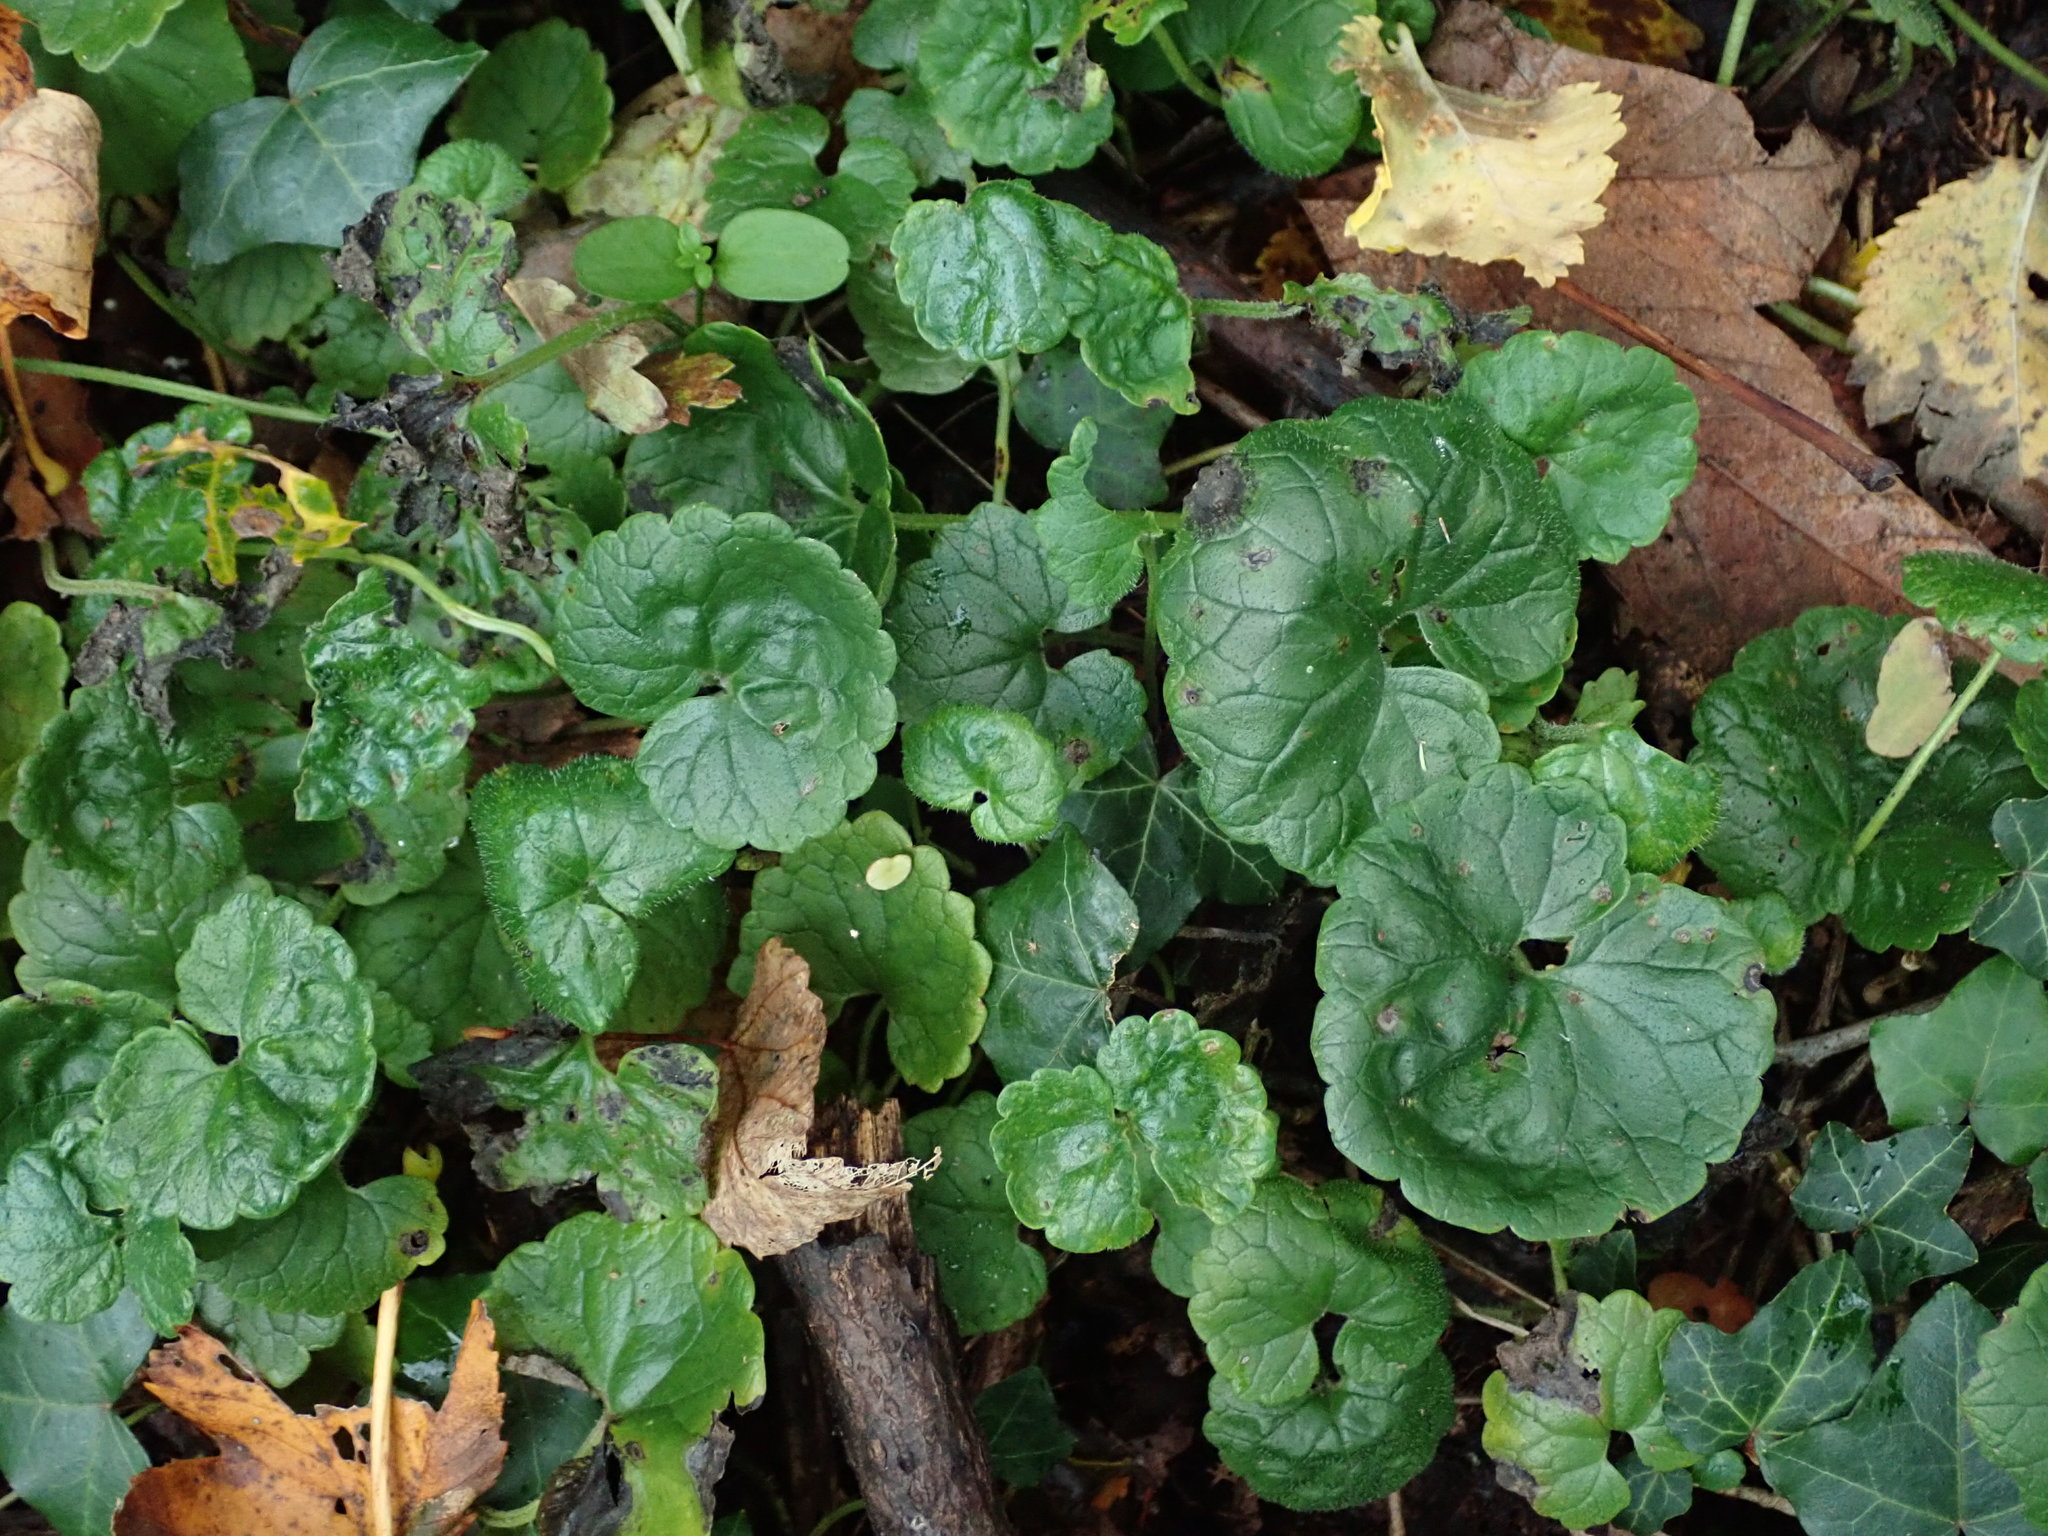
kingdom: Plantae
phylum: Tracheophyta
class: Magnoliopsida
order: Lamiales
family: Lamiaceae
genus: Glechoma
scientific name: Glechoma hederacea
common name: Ground ivy
